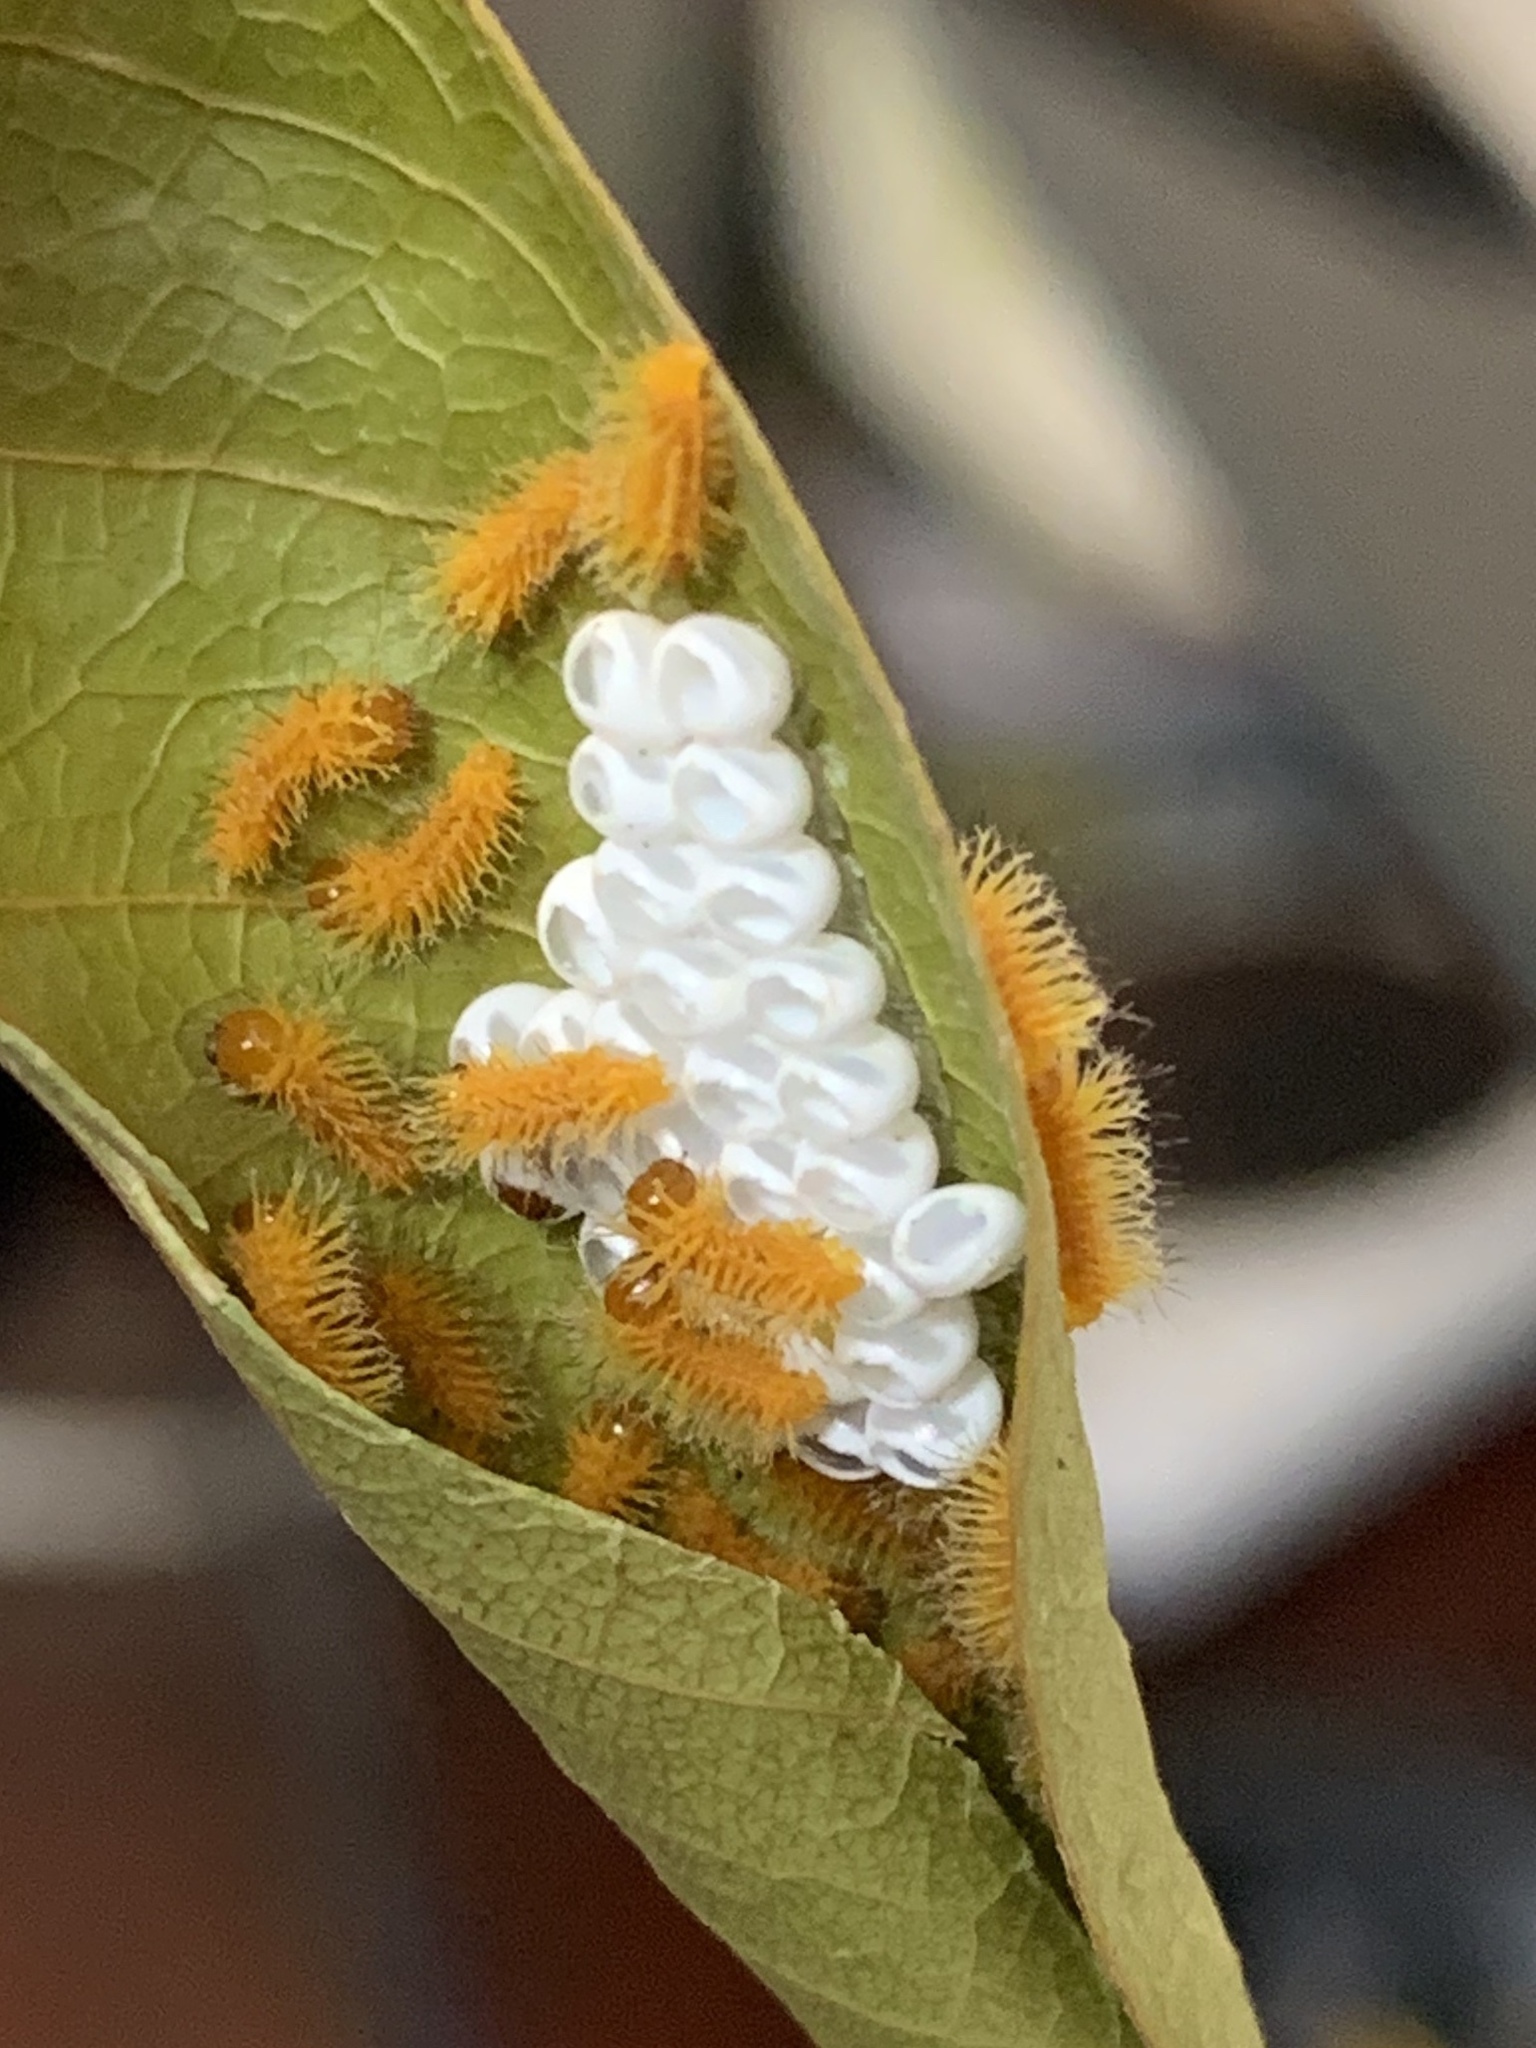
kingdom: Animalia
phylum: Arthropoda
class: Insecta
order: Lepidoptera
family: Saturniidae
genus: Automeris
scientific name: Automeris io
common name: Io moth
